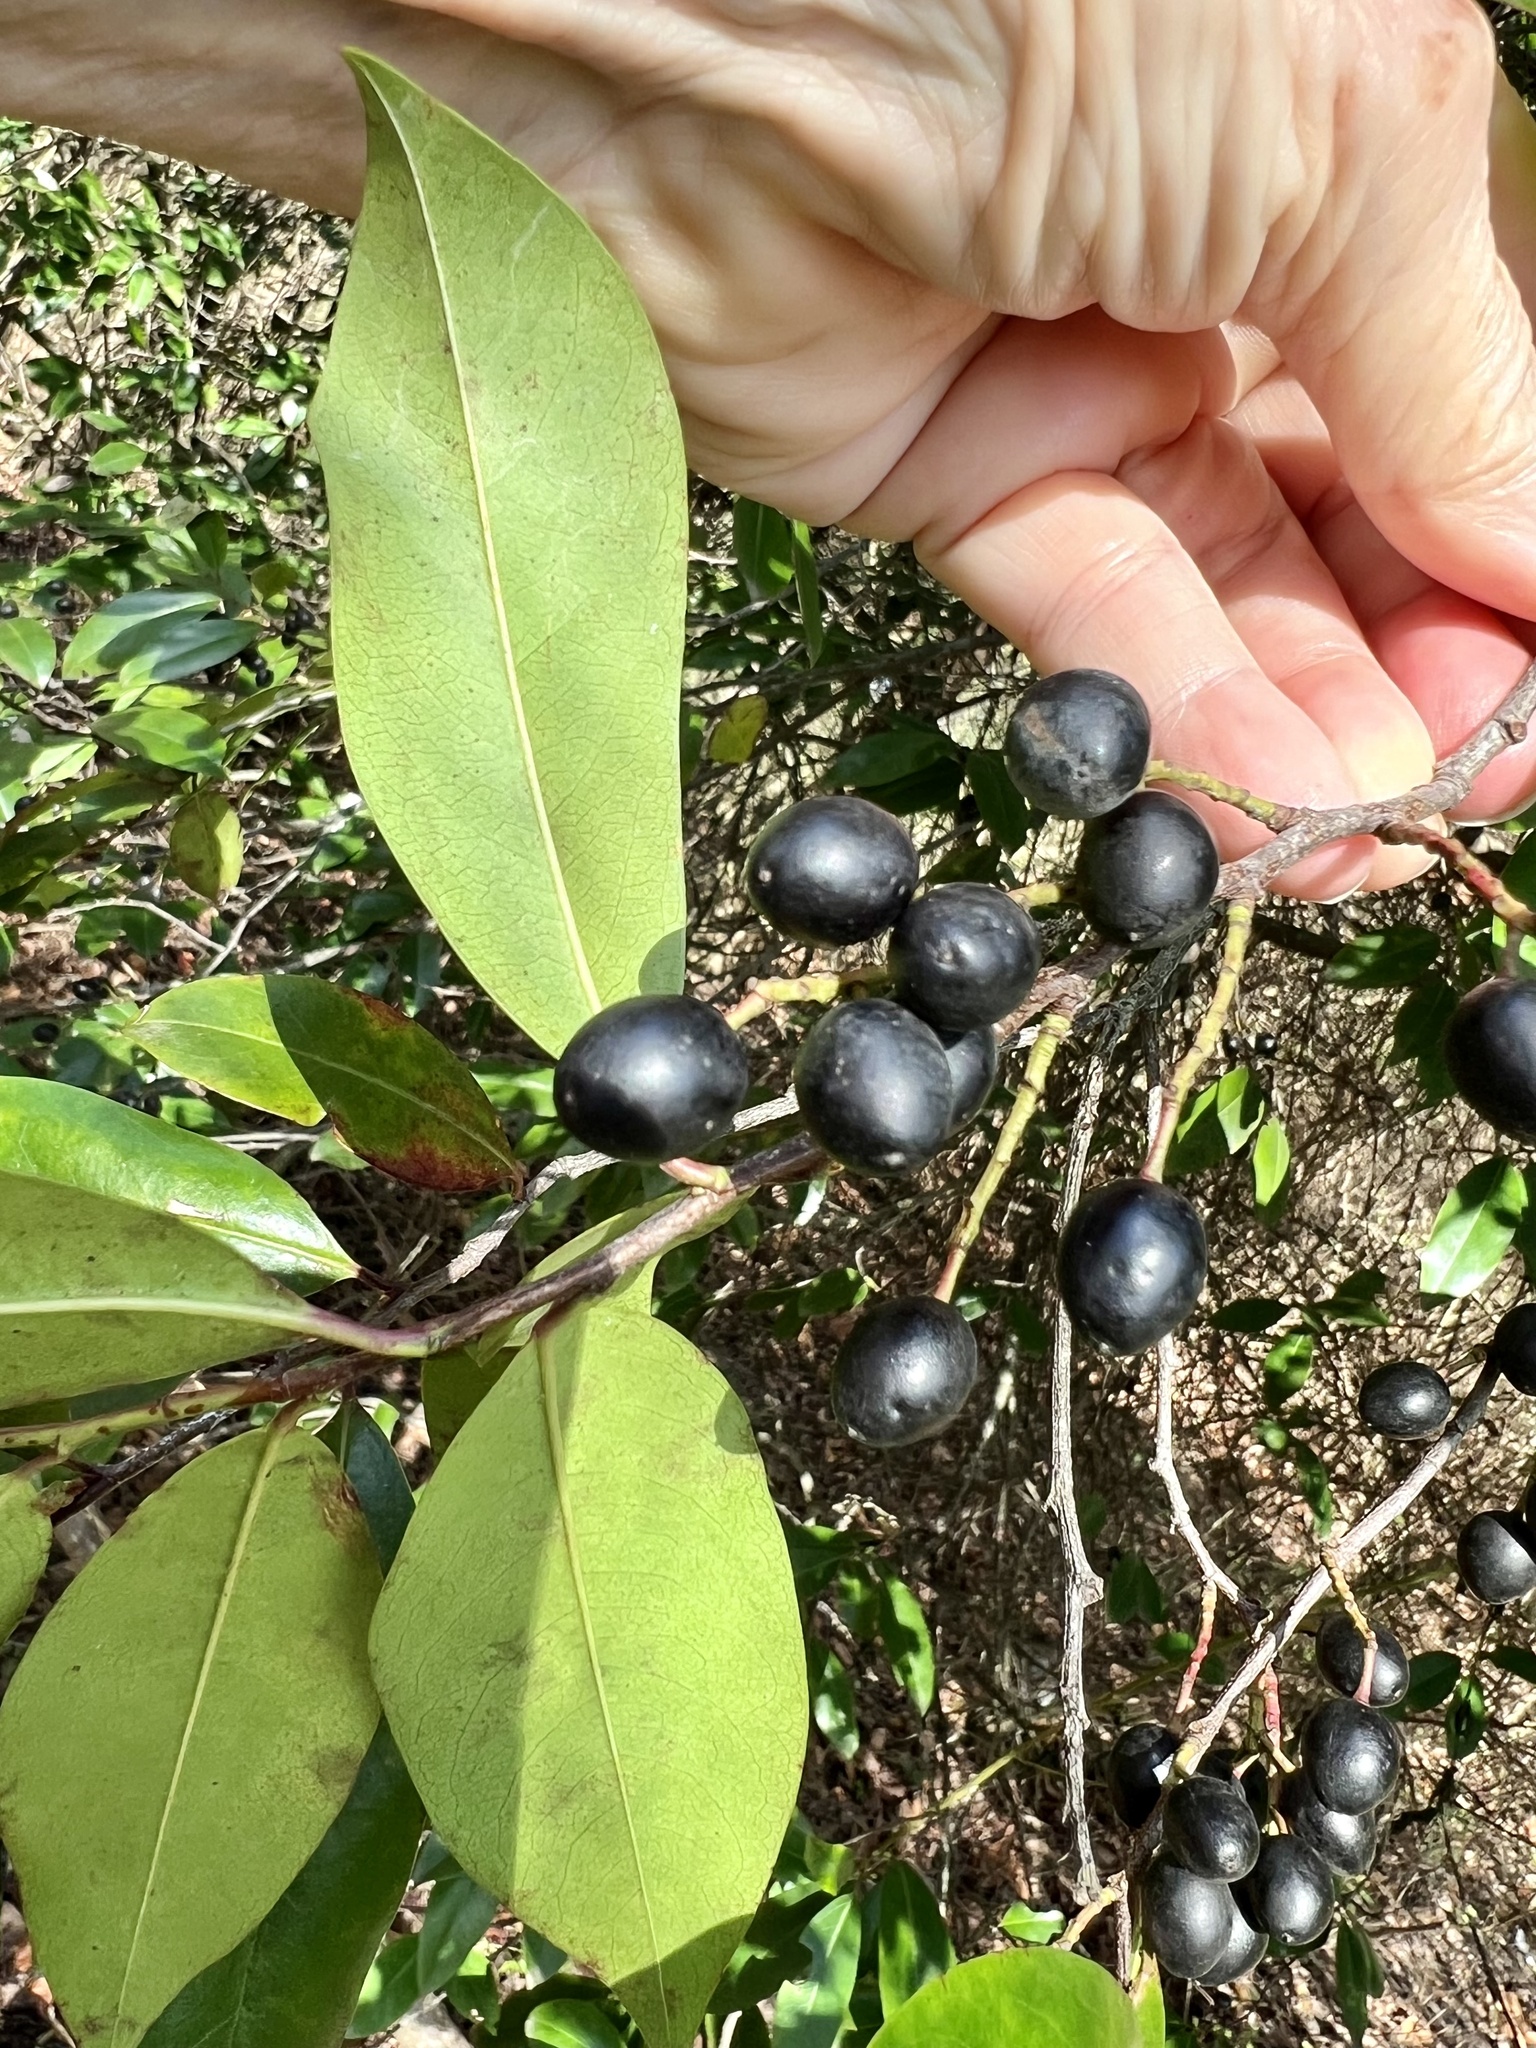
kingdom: Plantae
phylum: Tracheophyta
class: Magnoliopsida
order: Rosales
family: Rosaceae
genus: Prunus
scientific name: Prunus caroliniana
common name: Carolina laurel cherry
